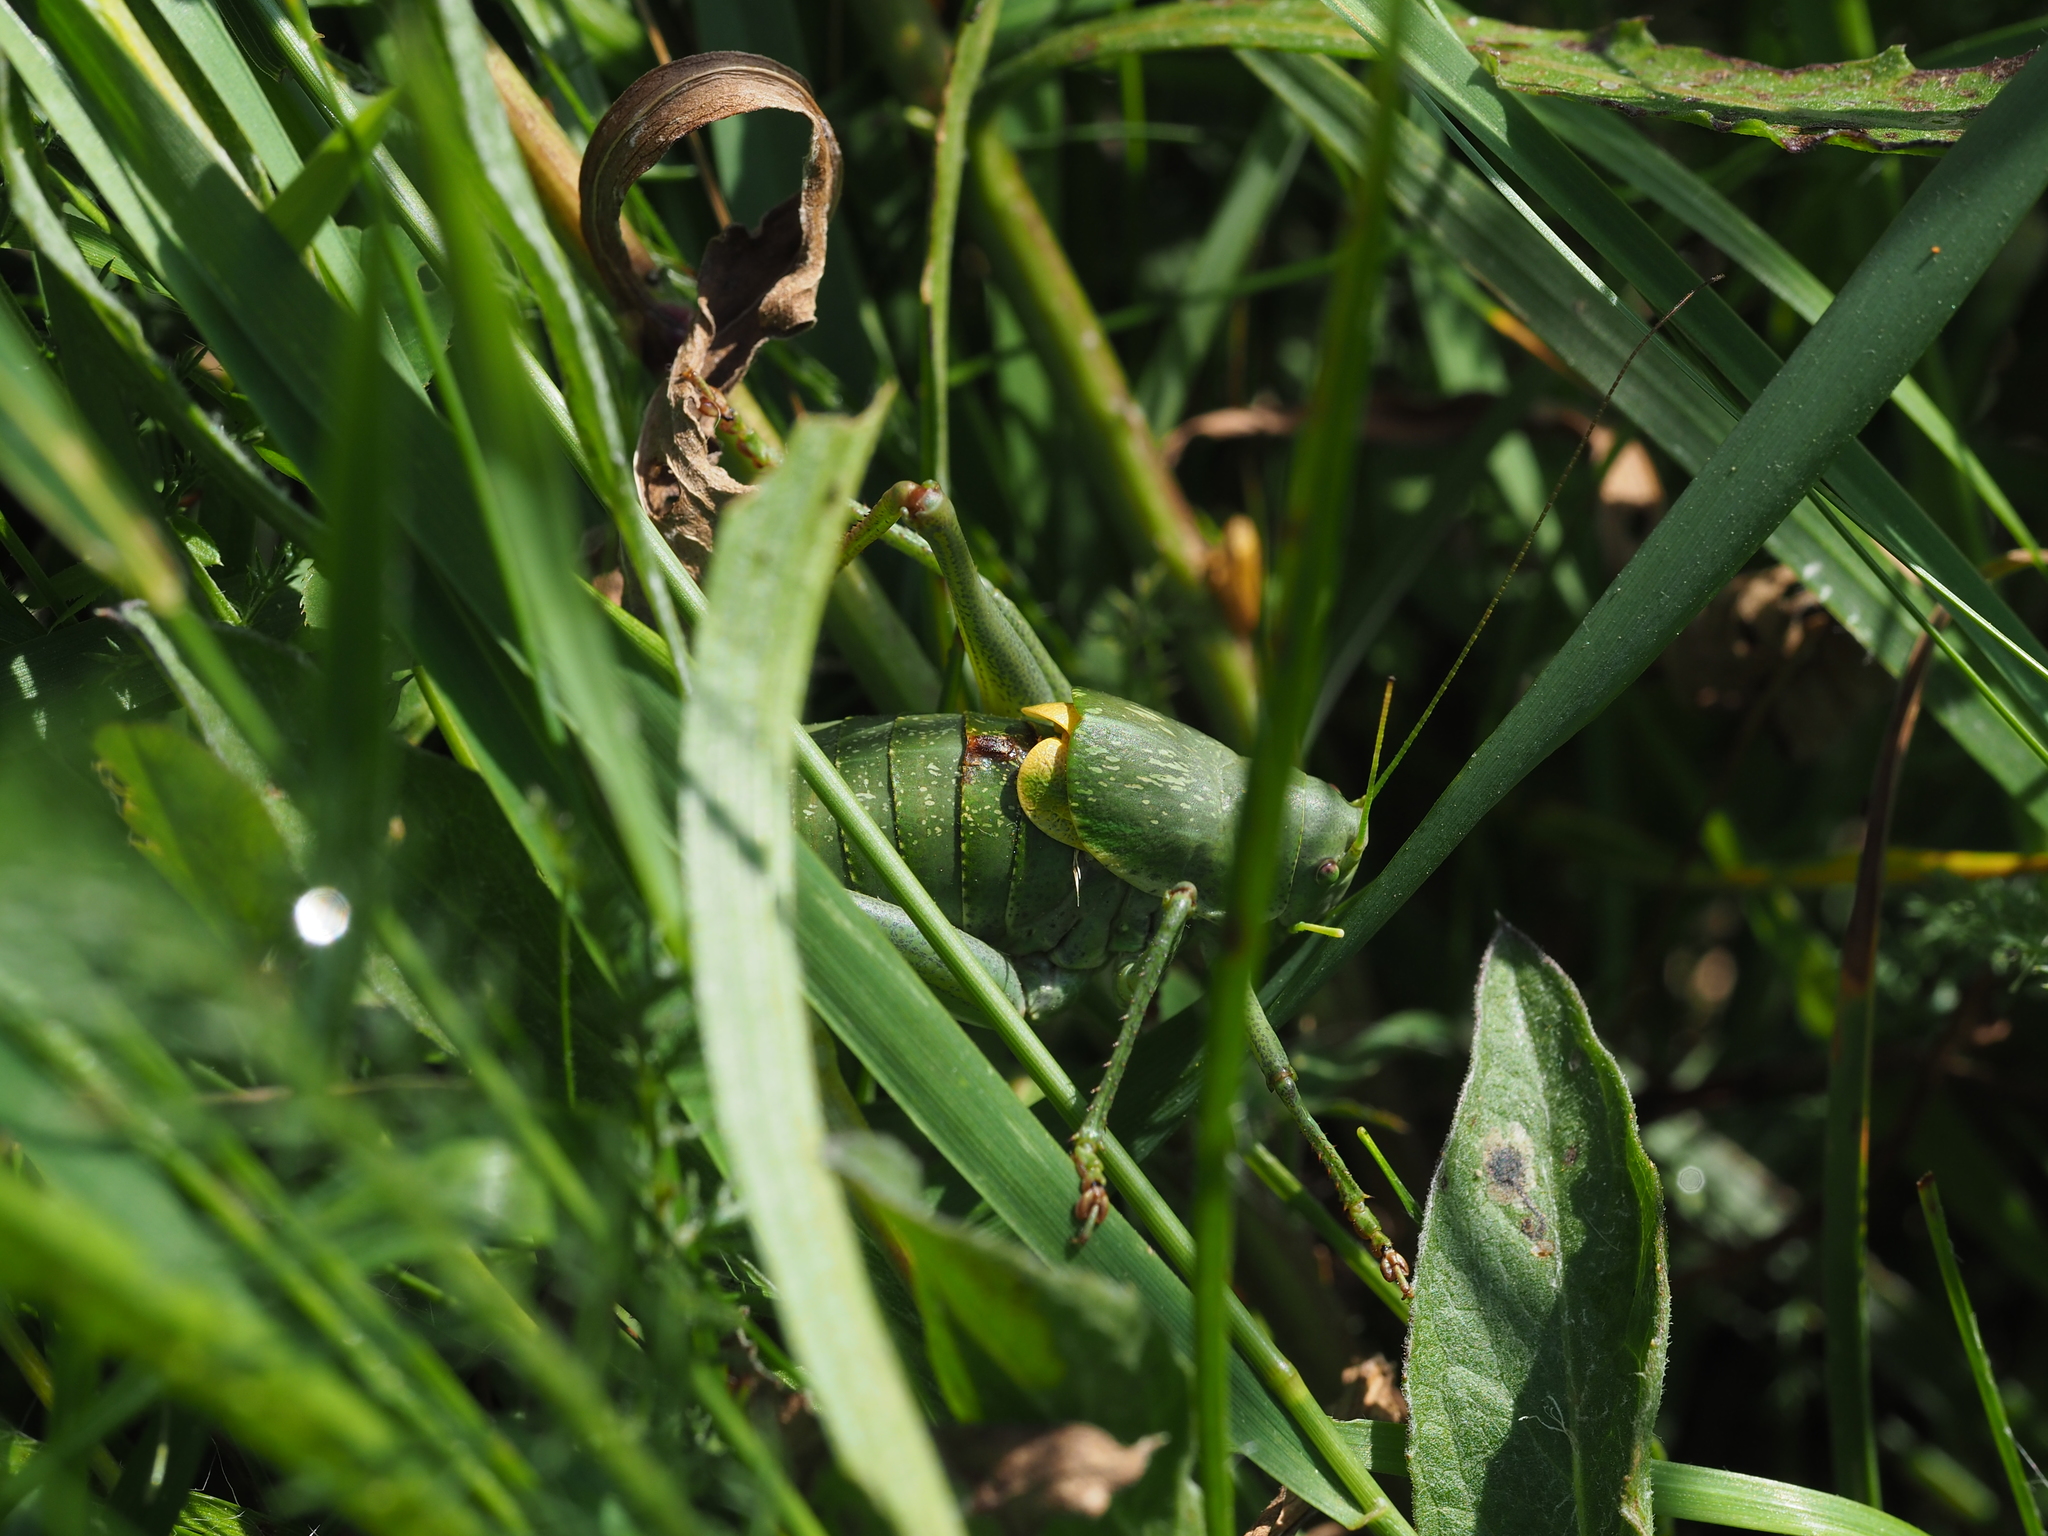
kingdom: Animalia
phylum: Arthropoda
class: Insecta
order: Orthoptera
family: Tettigoniidae
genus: Polysarcus
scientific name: Polysarcus denticauda
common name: Large saw-tailed bush-cricket
